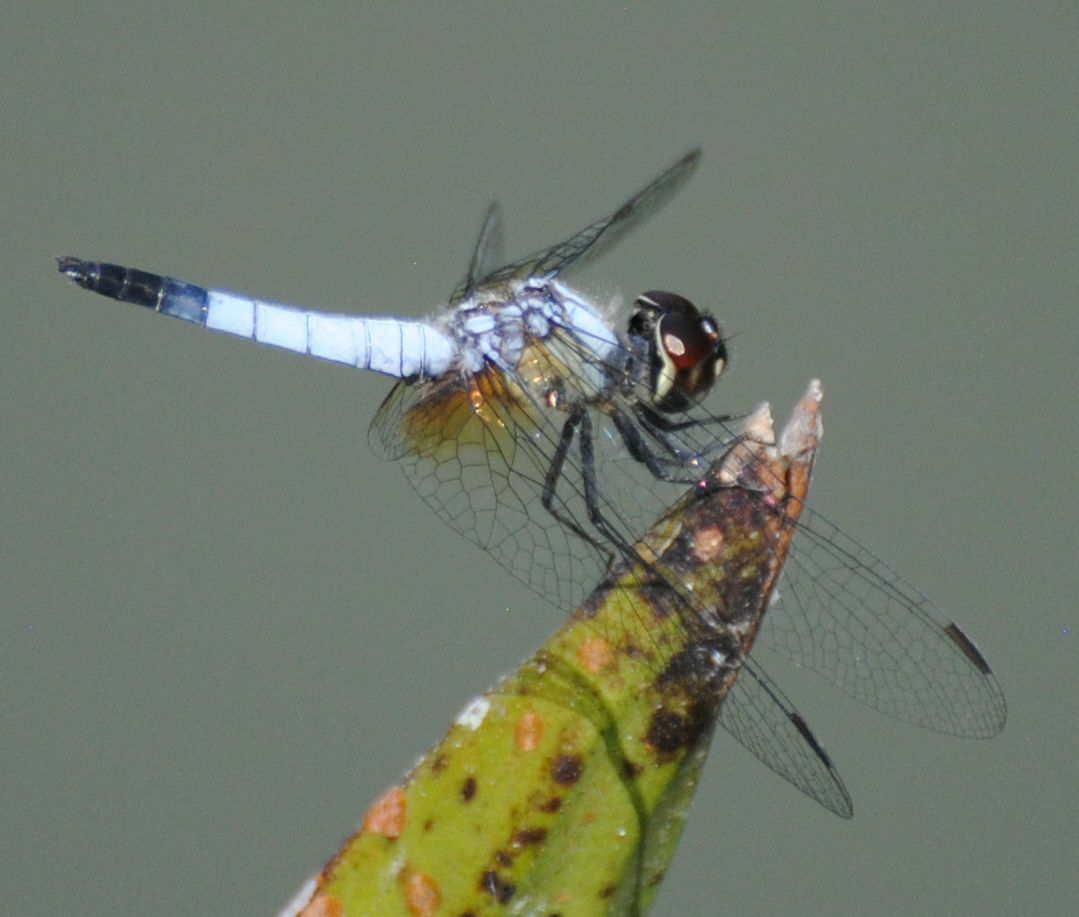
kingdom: Animalia
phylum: Arthropoda
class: Insecta
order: Odonata
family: Libellulidae
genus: Aethriamanta
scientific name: Aethriamanta gracilis
